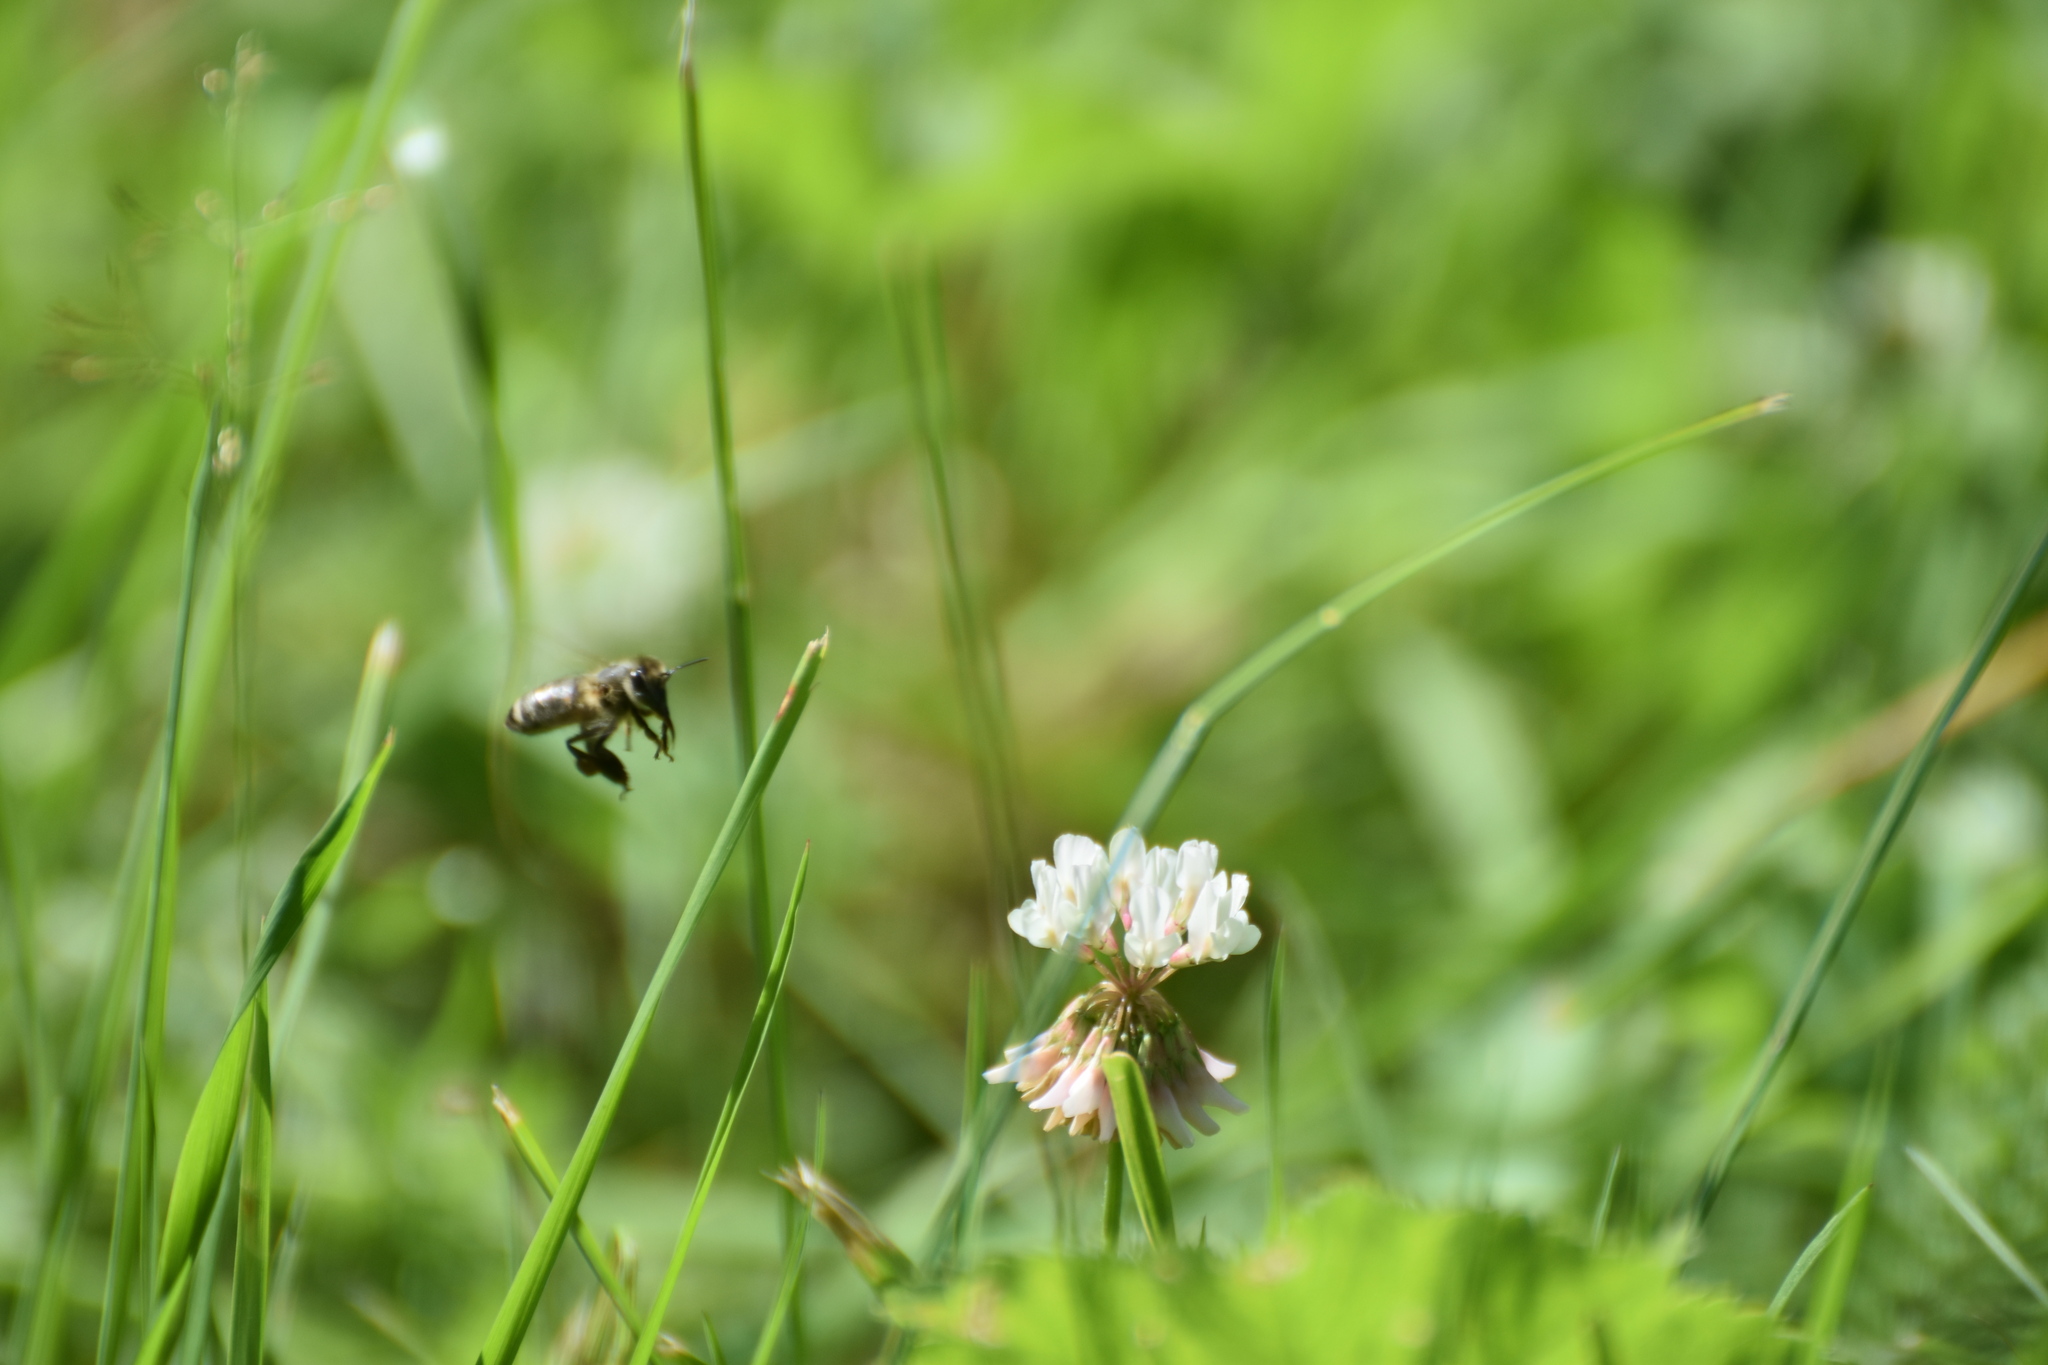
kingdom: Animalia
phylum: Arthropoda
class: Insecta
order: Hymenoptera
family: Apidae
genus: Apis
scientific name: Apis mellifera
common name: Honey bee
